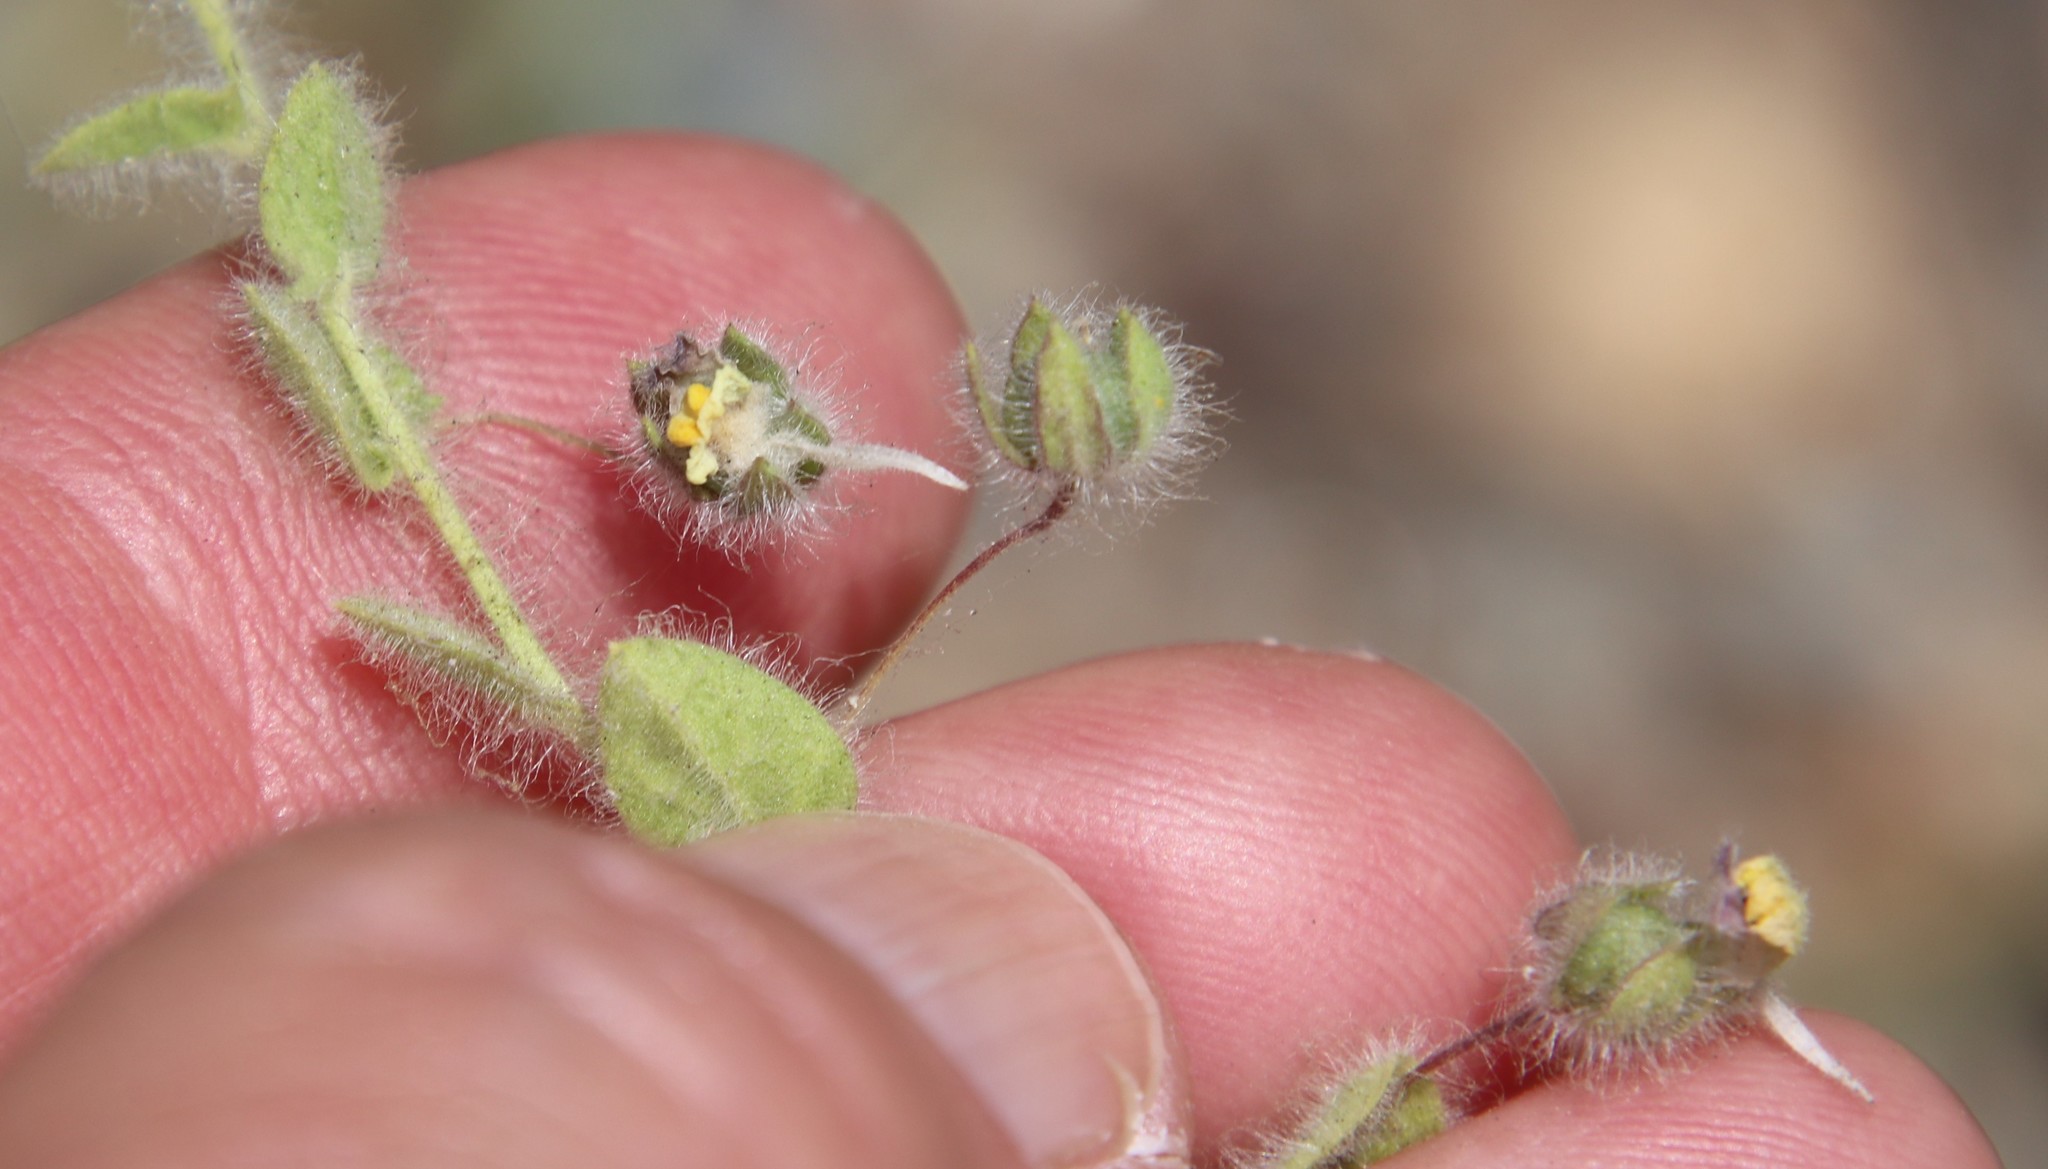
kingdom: Plantae
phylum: Tracheophyta
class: Magnoliopsida
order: Lamiales
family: Plantaginaceae
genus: Kickxia
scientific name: Kickxia elatine
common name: Sharp-leaved fluellen
